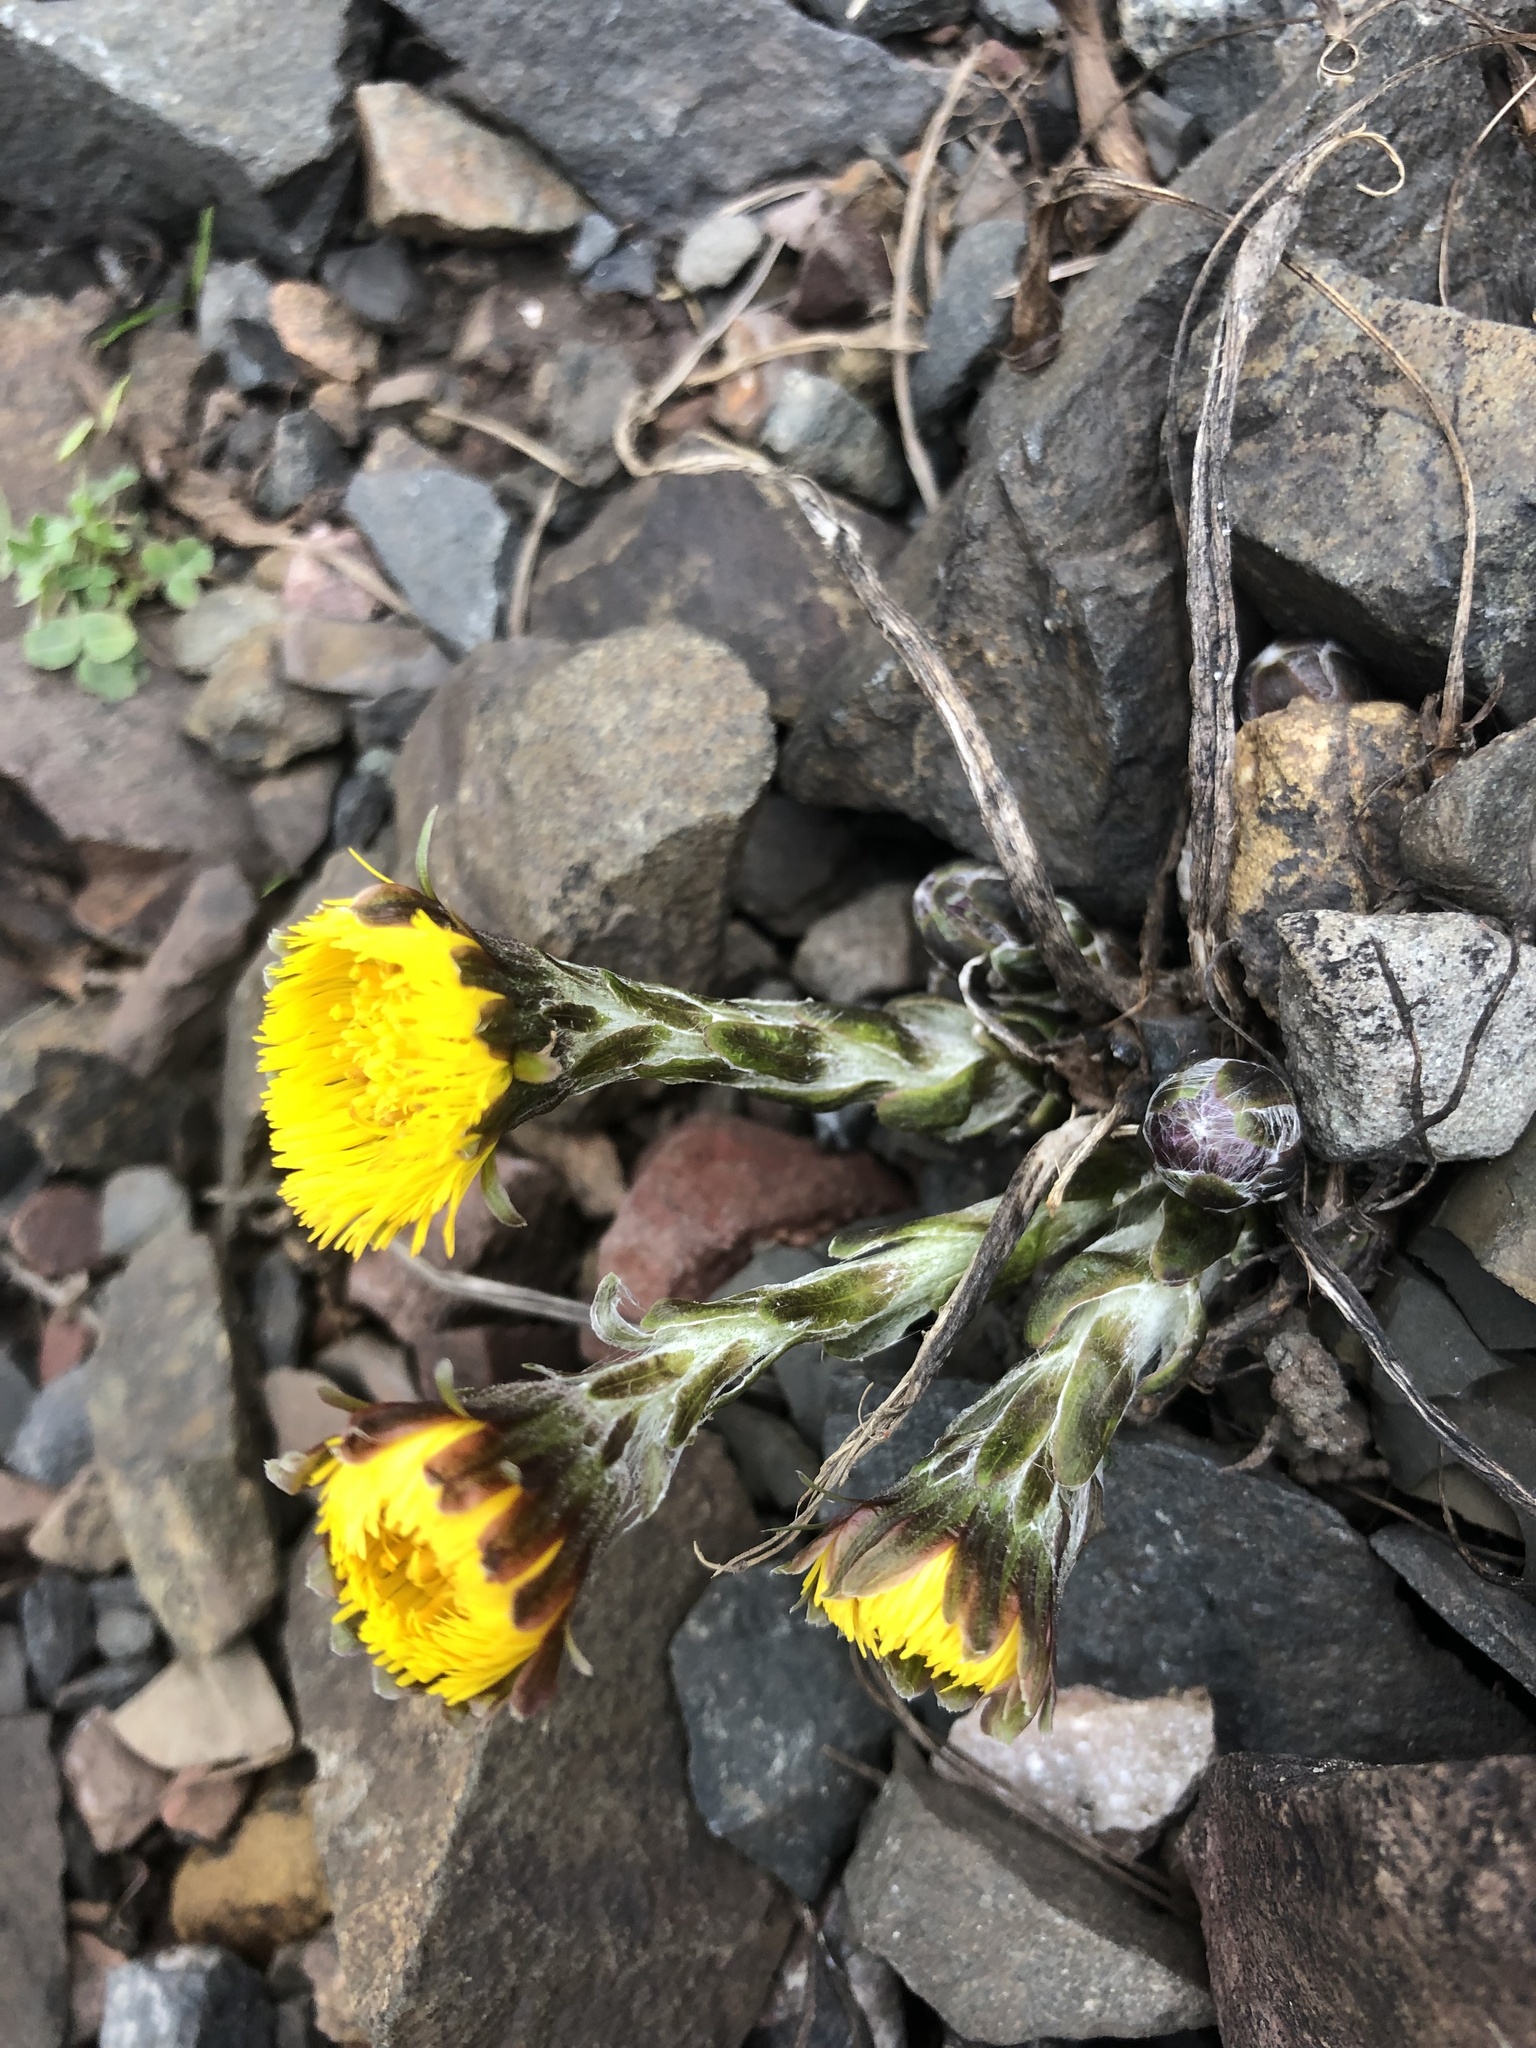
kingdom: Plantae
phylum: Tracheophyta
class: Magnoliopsida
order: Asterales
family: Asteraceae
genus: Tussilago
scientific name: Tussilago farfara
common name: Coltsfoot
